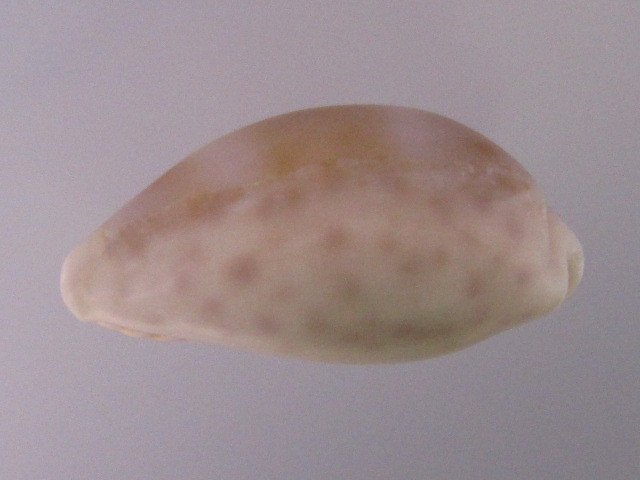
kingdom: Animalia
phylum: Mollusca
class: Gastropoda
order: Littorinimorpha
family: Cypraeidae
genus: Ovatipsa
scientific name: Ovatipsa chinensis
